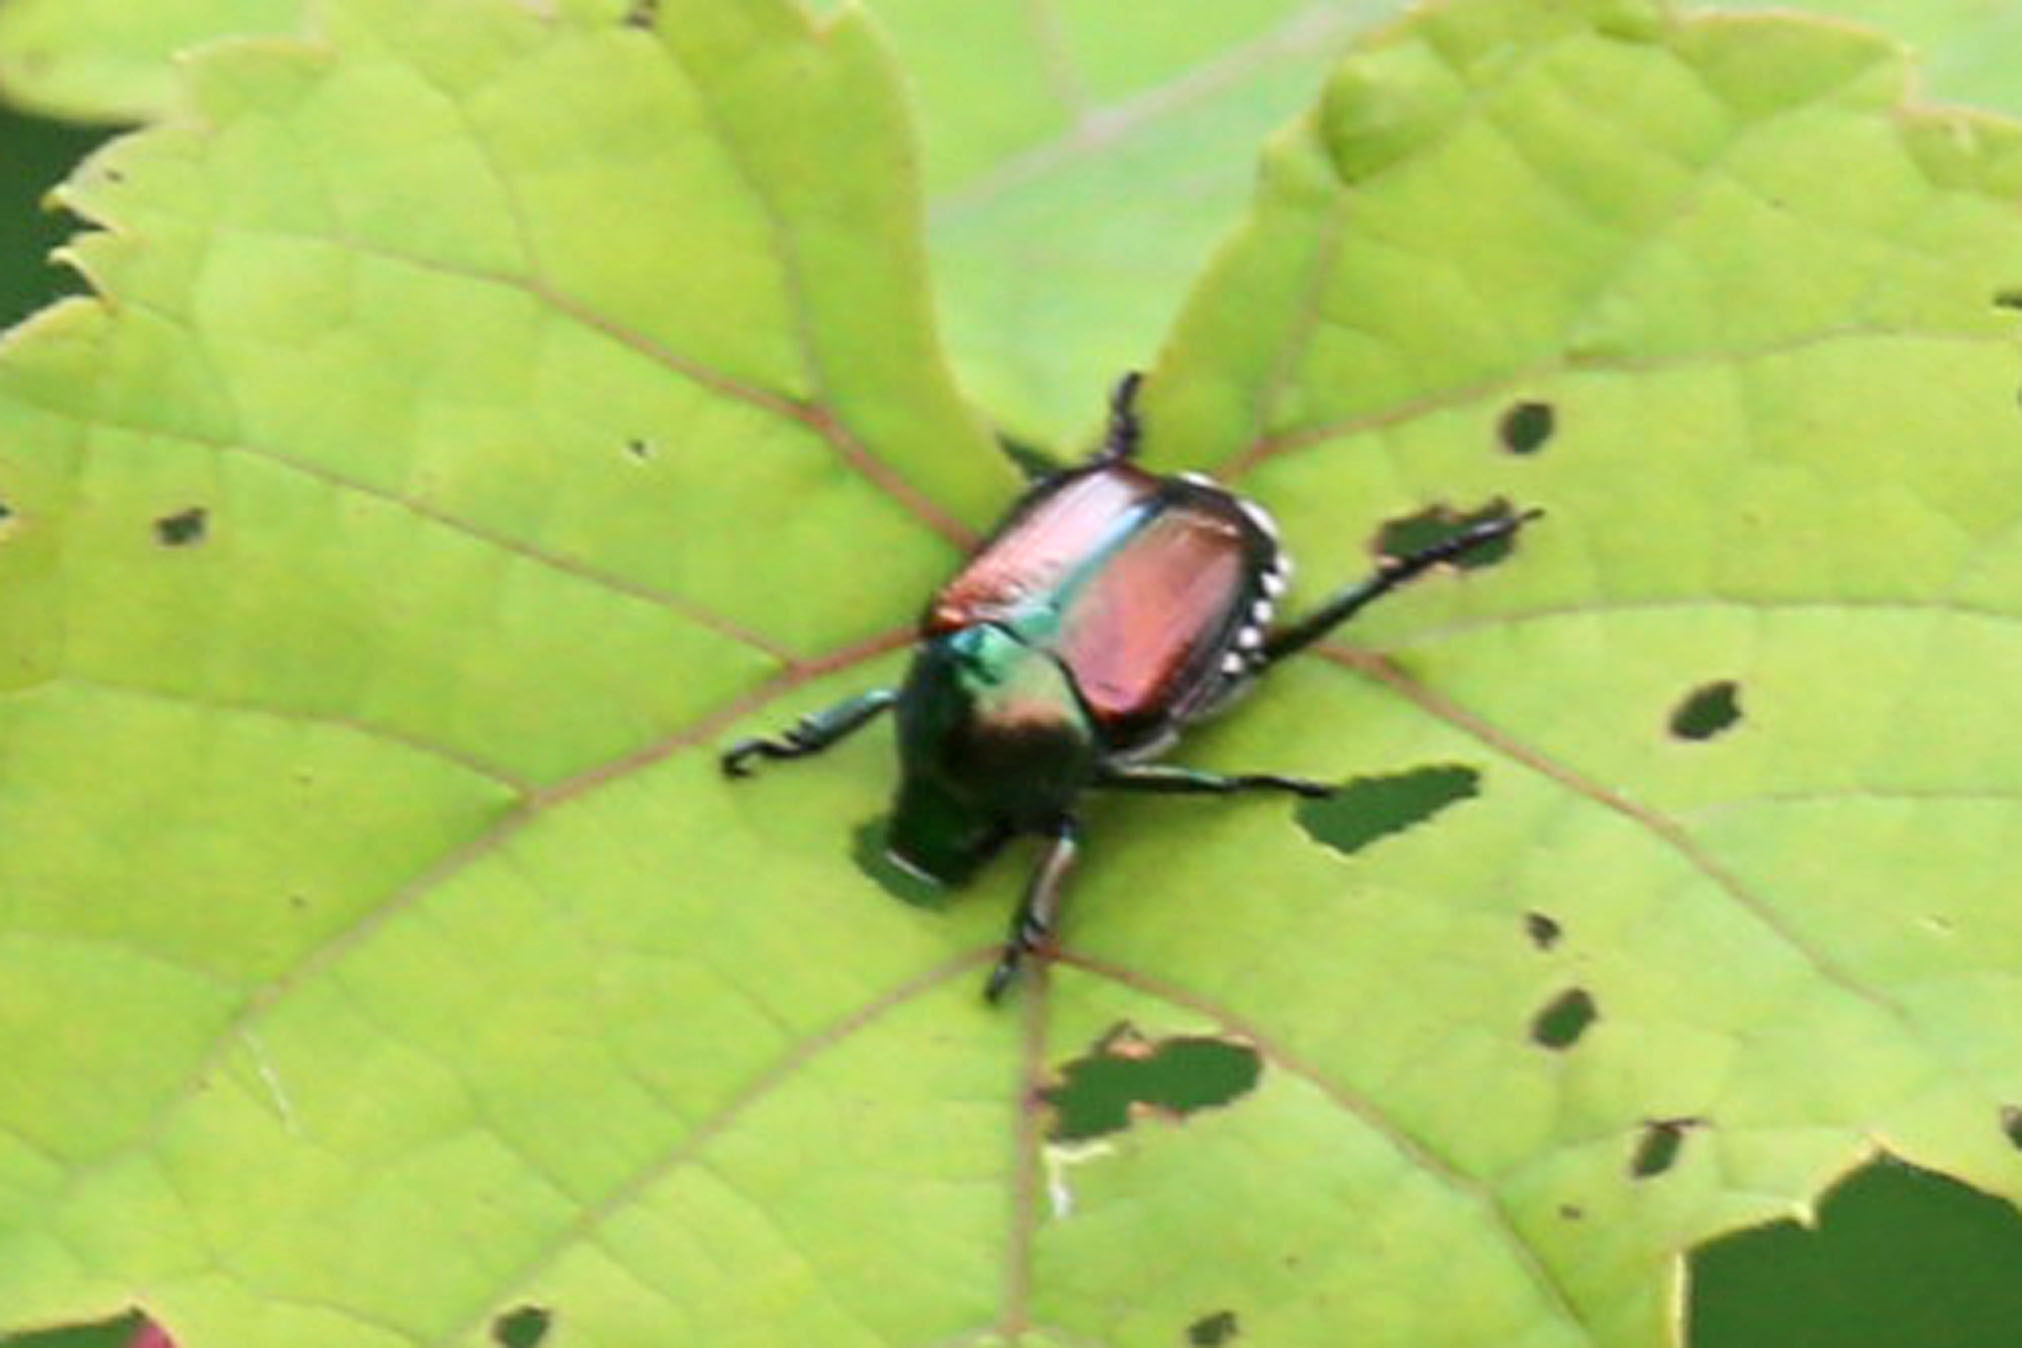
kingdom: Animalia
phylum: Arthropoda
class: Insecta
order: Coleoptera
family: Scarabaeidae
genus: Popillia
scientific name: Popillia japonica
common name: Japanese beetle
